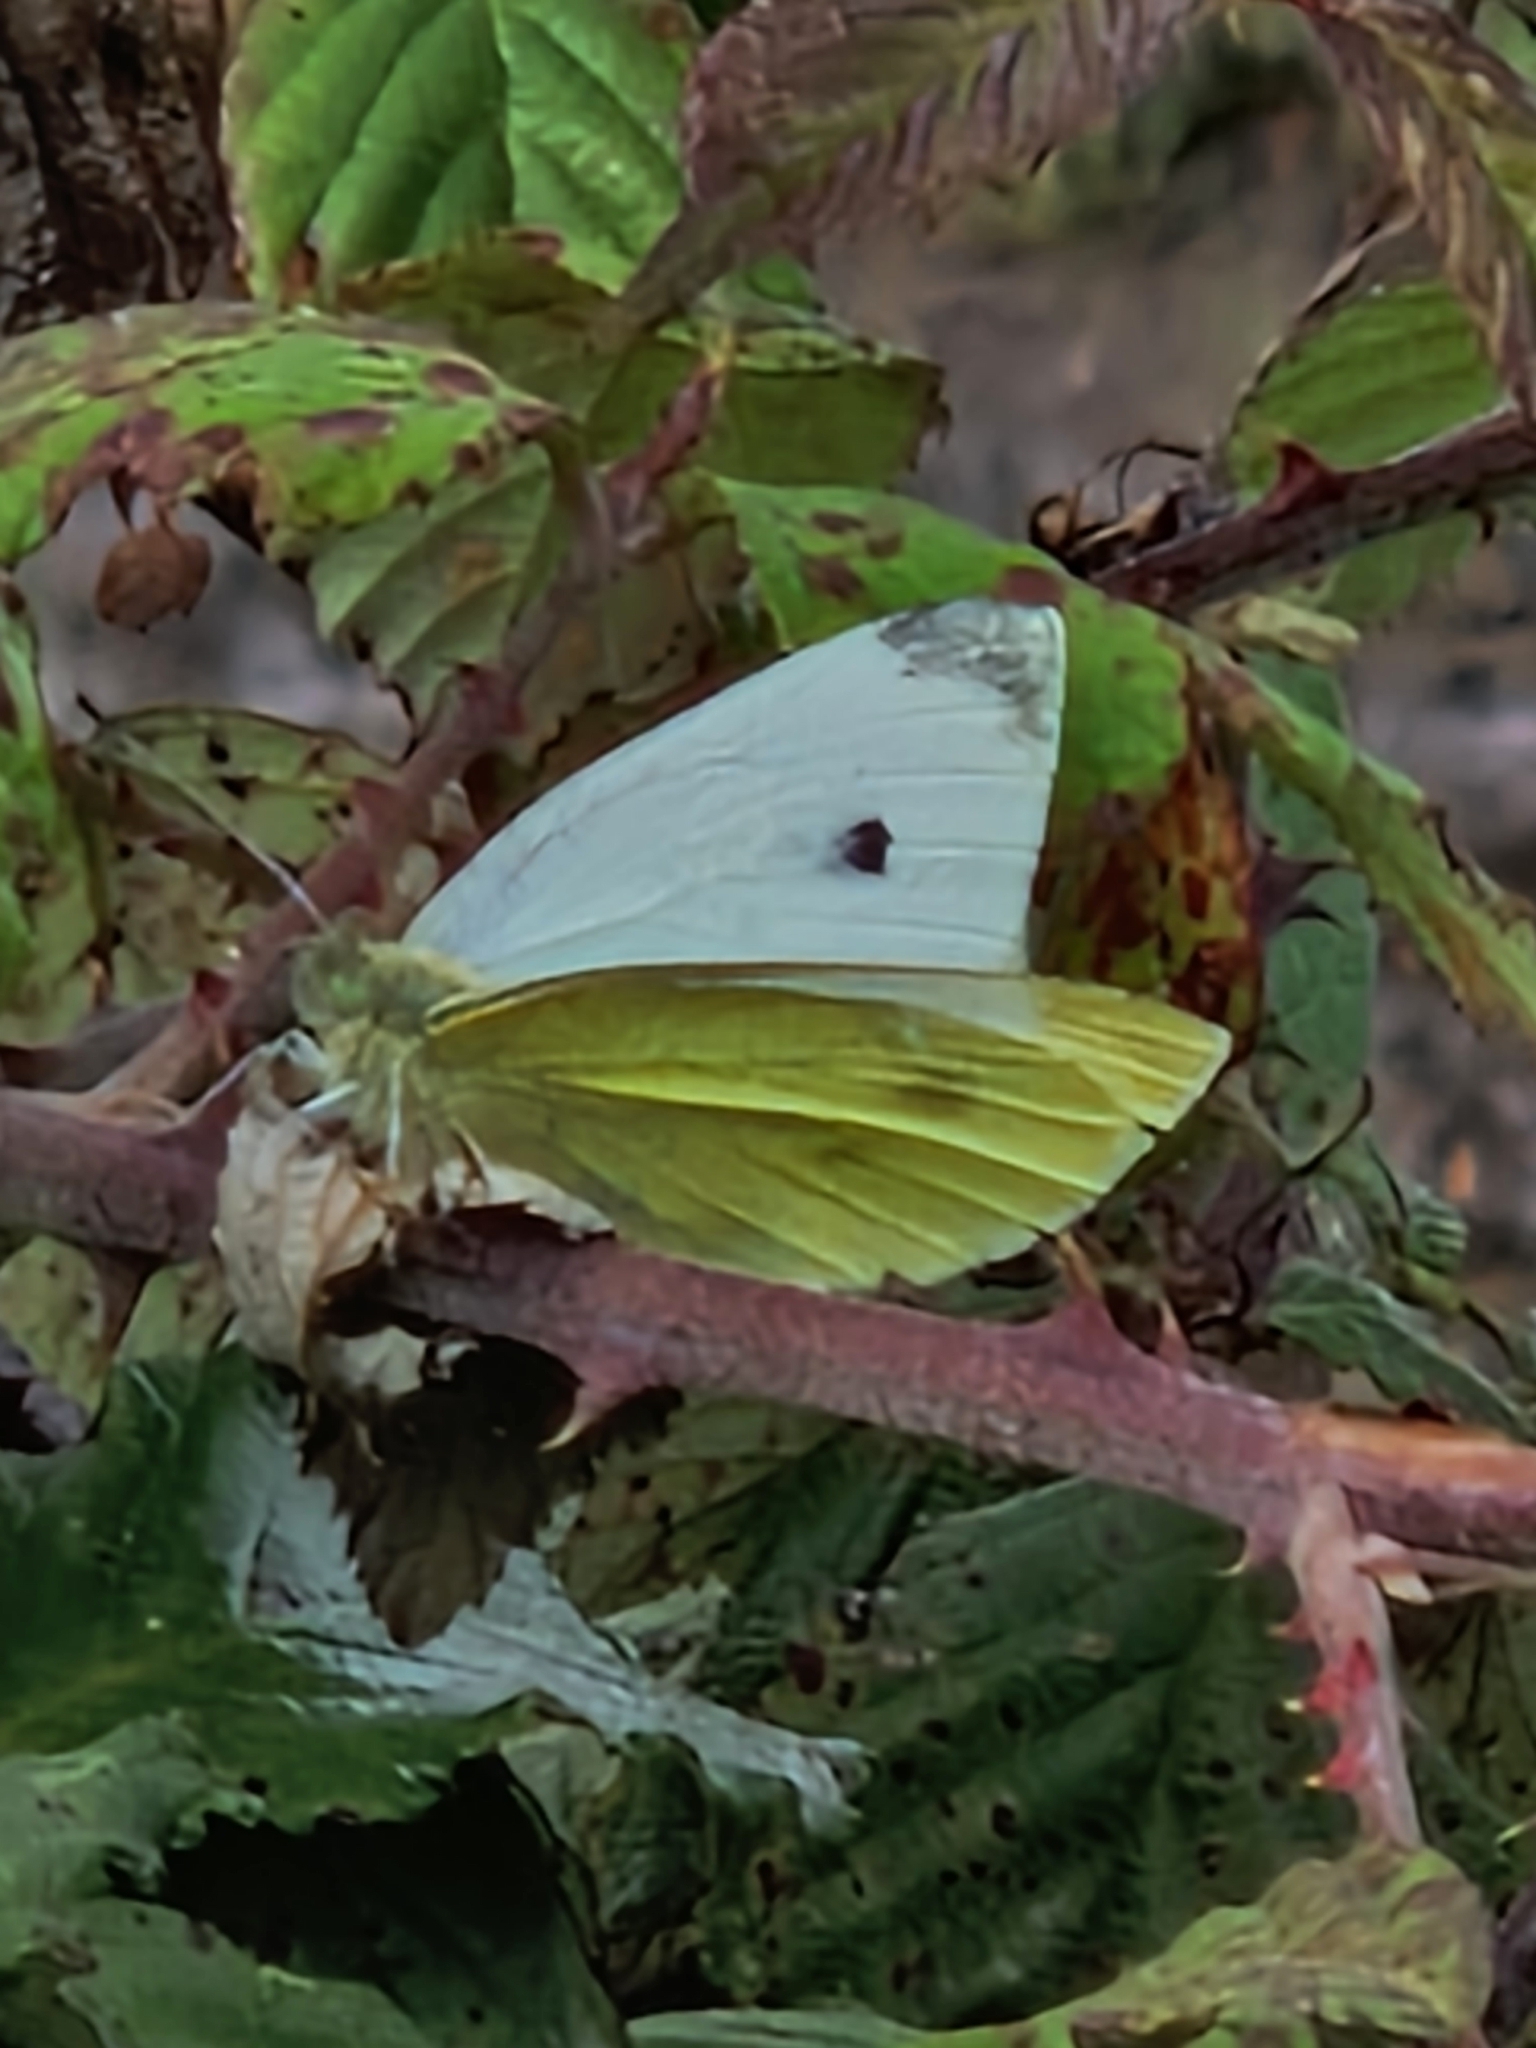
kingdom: Animalia
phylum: Arthropoda
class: Insecta
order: Lepidoptera
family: Pieridae
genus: Pieris
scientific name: Pieris rapae
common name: Small white
